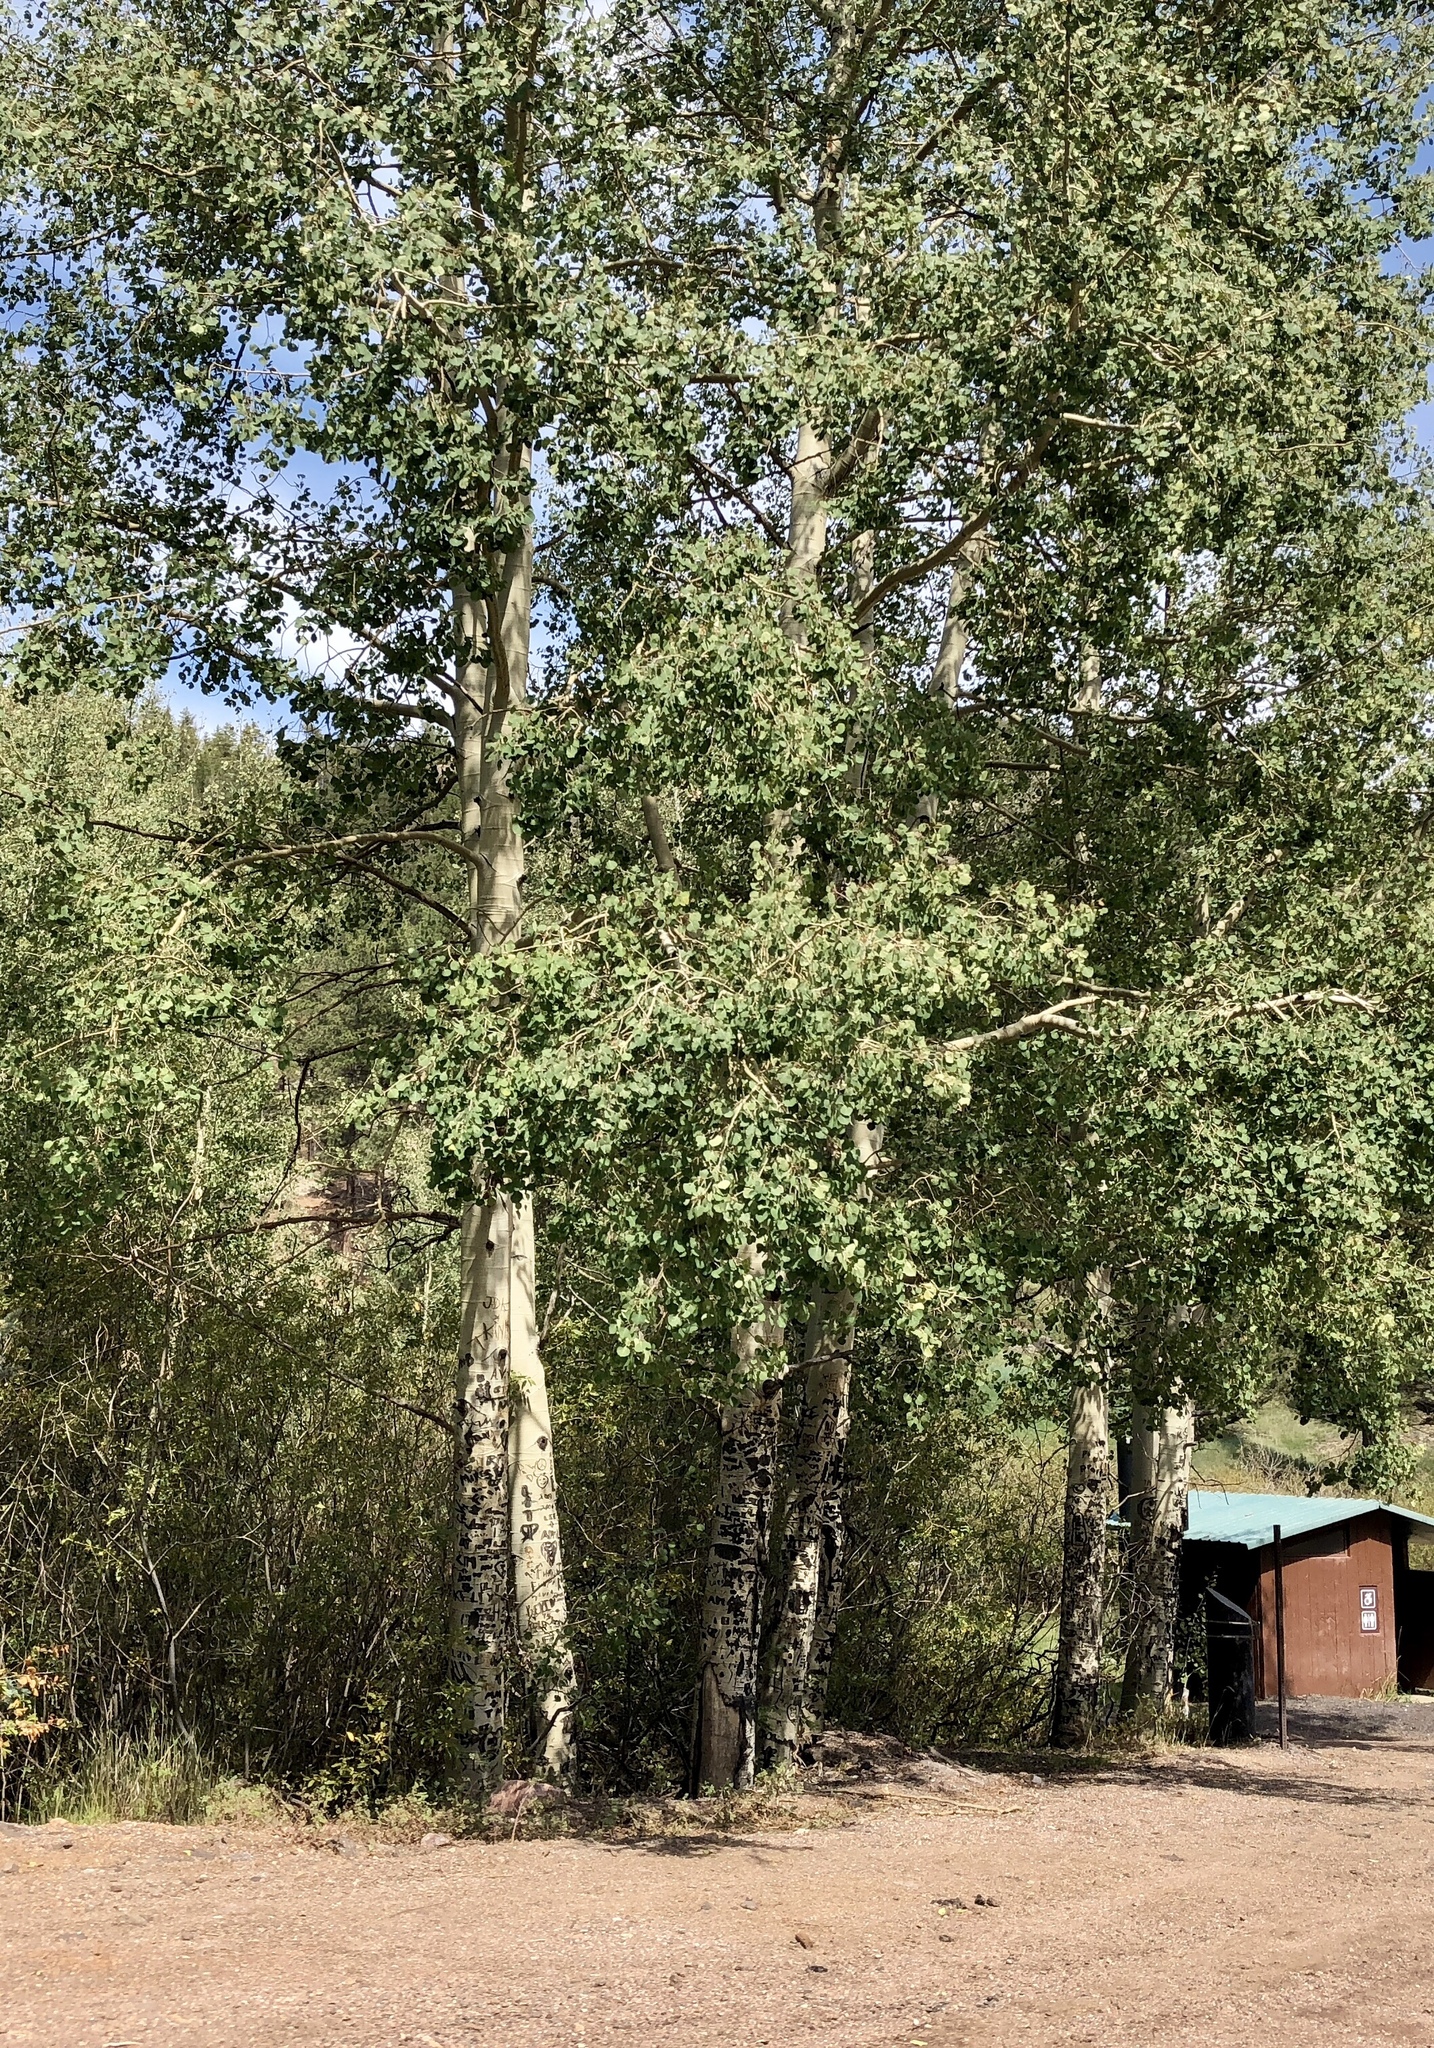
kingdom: Plantae
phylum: Tracheophyta
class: Magnoliopsida
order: Malpighiales
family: Salicaceae
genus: Populus
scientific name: Populus tremuloides
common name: Quaking aspen
